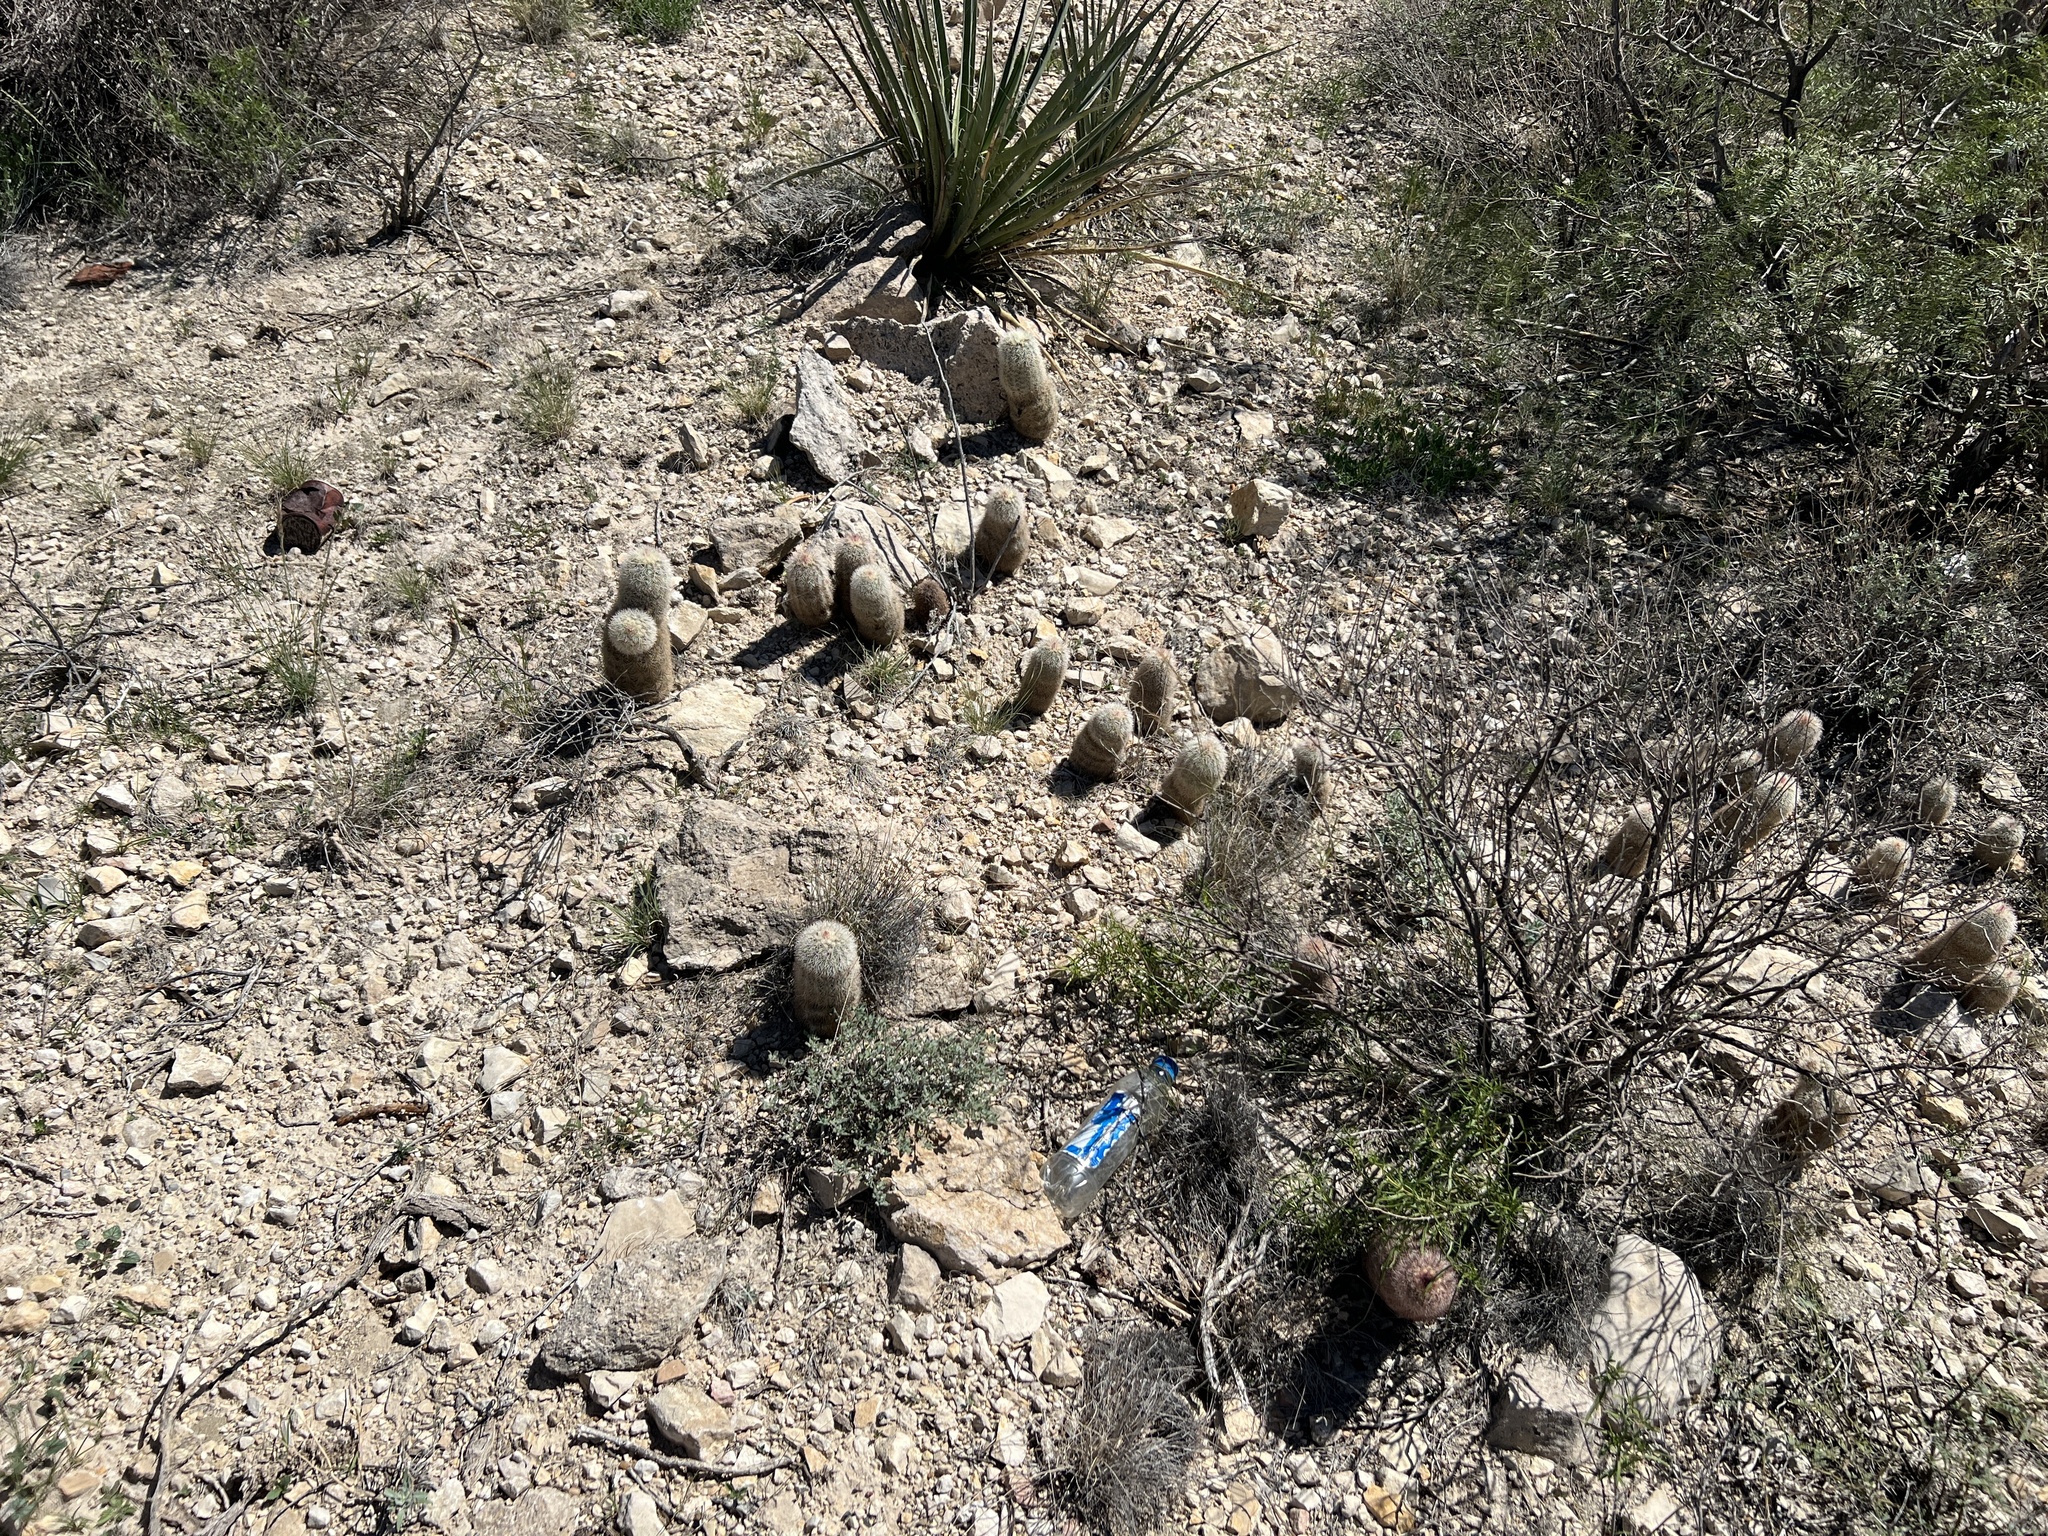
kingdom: Plantae
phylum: Tracheophyta
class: Magnoliopsida
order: Caryophyllales
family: Cactaceae
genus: Echinocereus
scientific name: Echinocereus dasyacanthus
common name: Spiny hedgehog cactus
